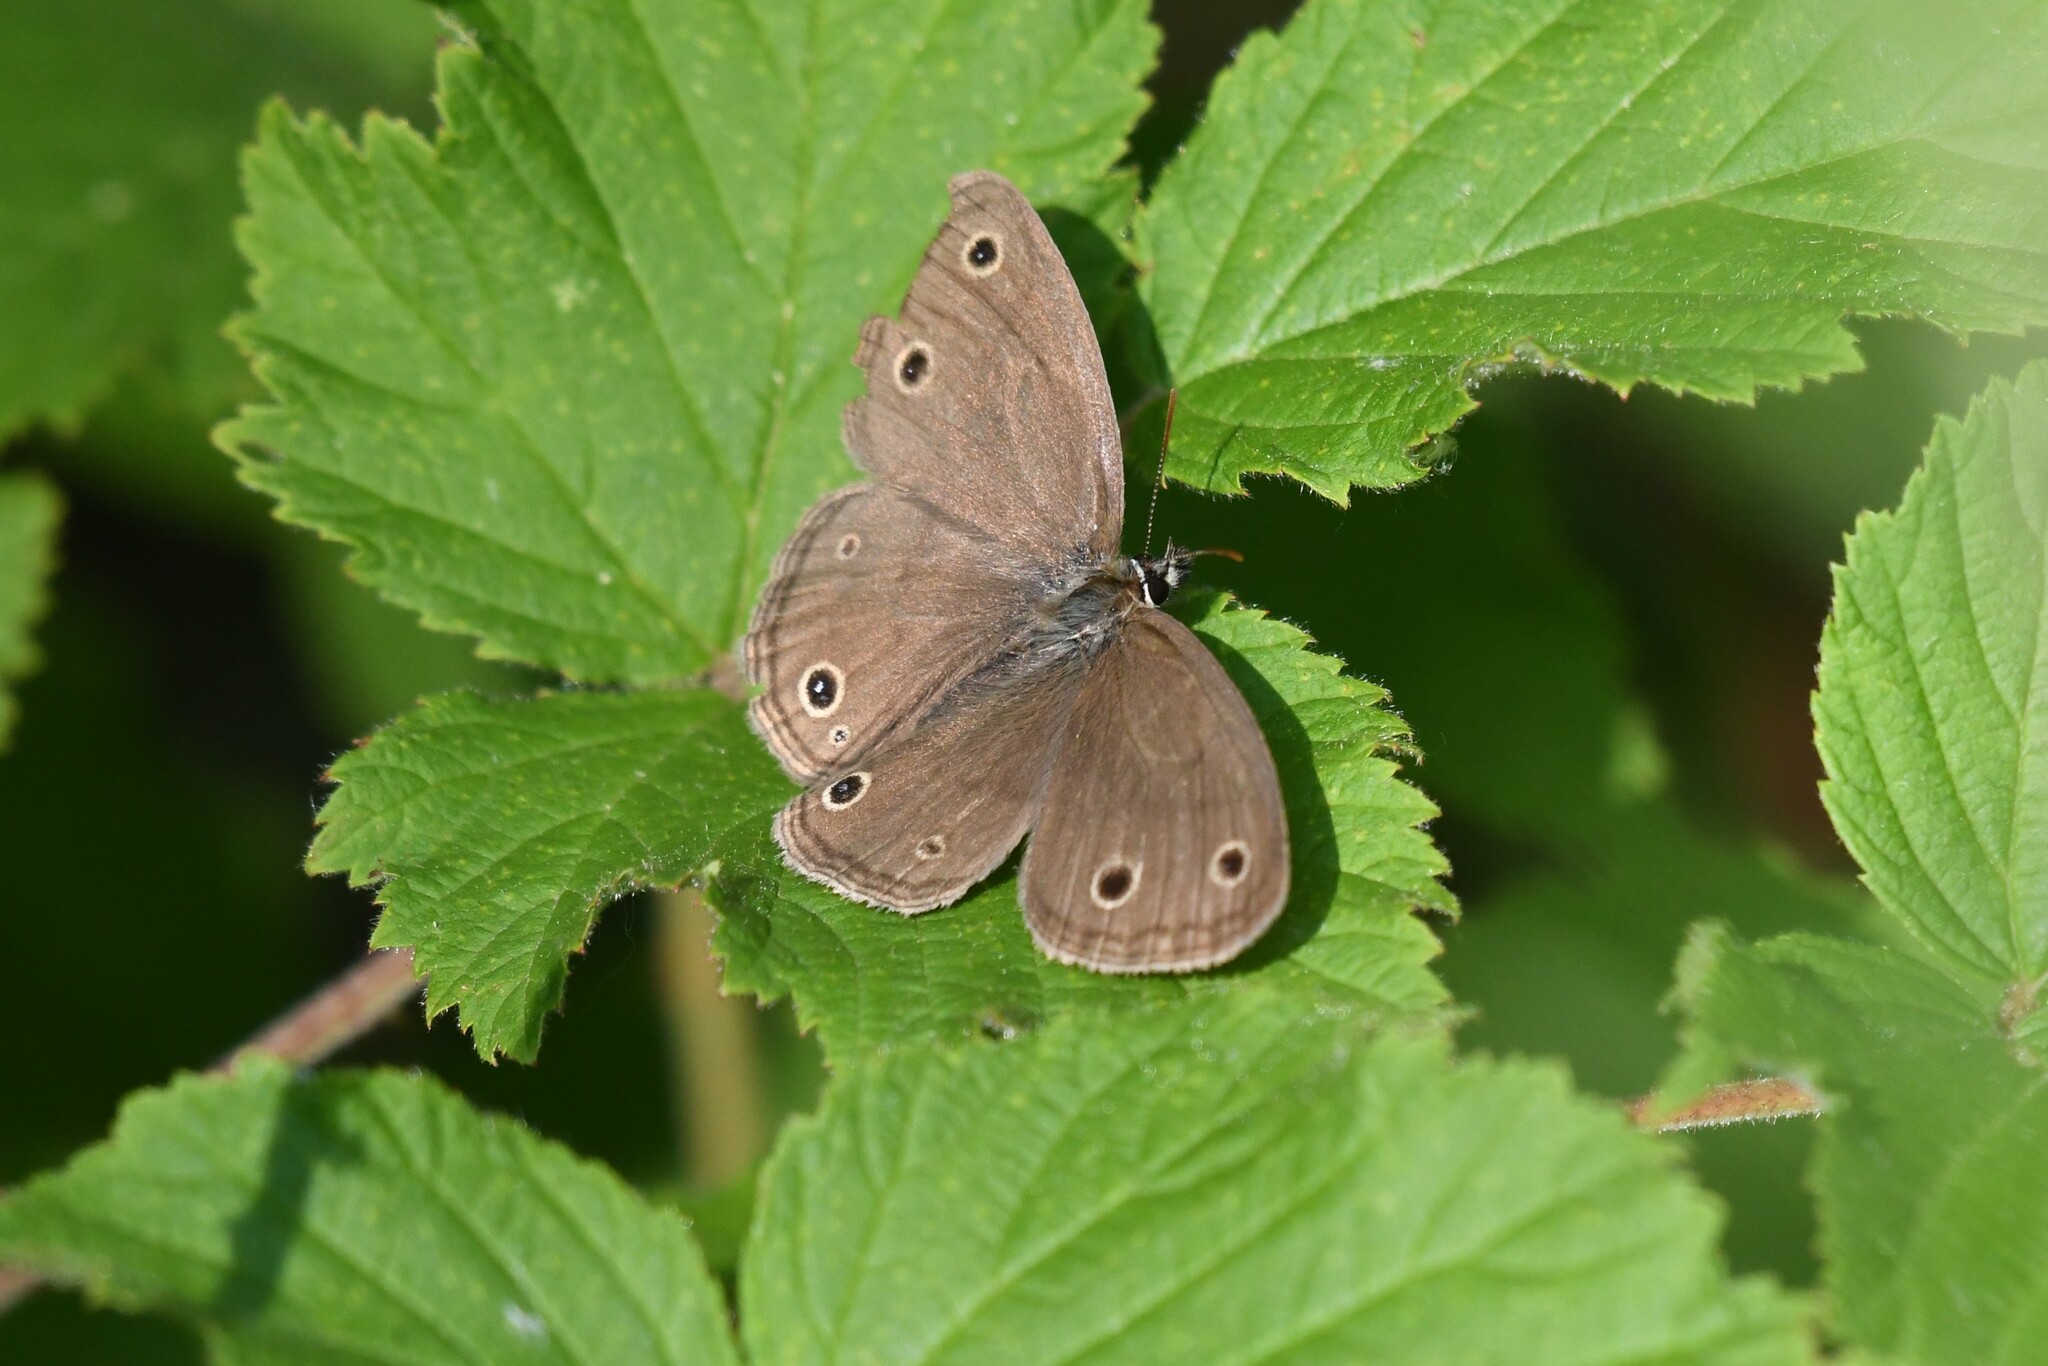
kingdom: Animalia
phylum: Arthropoda
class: Insecta
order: Lepidoptera
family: Nymphalidae
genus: Euptychia
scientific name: Euptychia cymela
